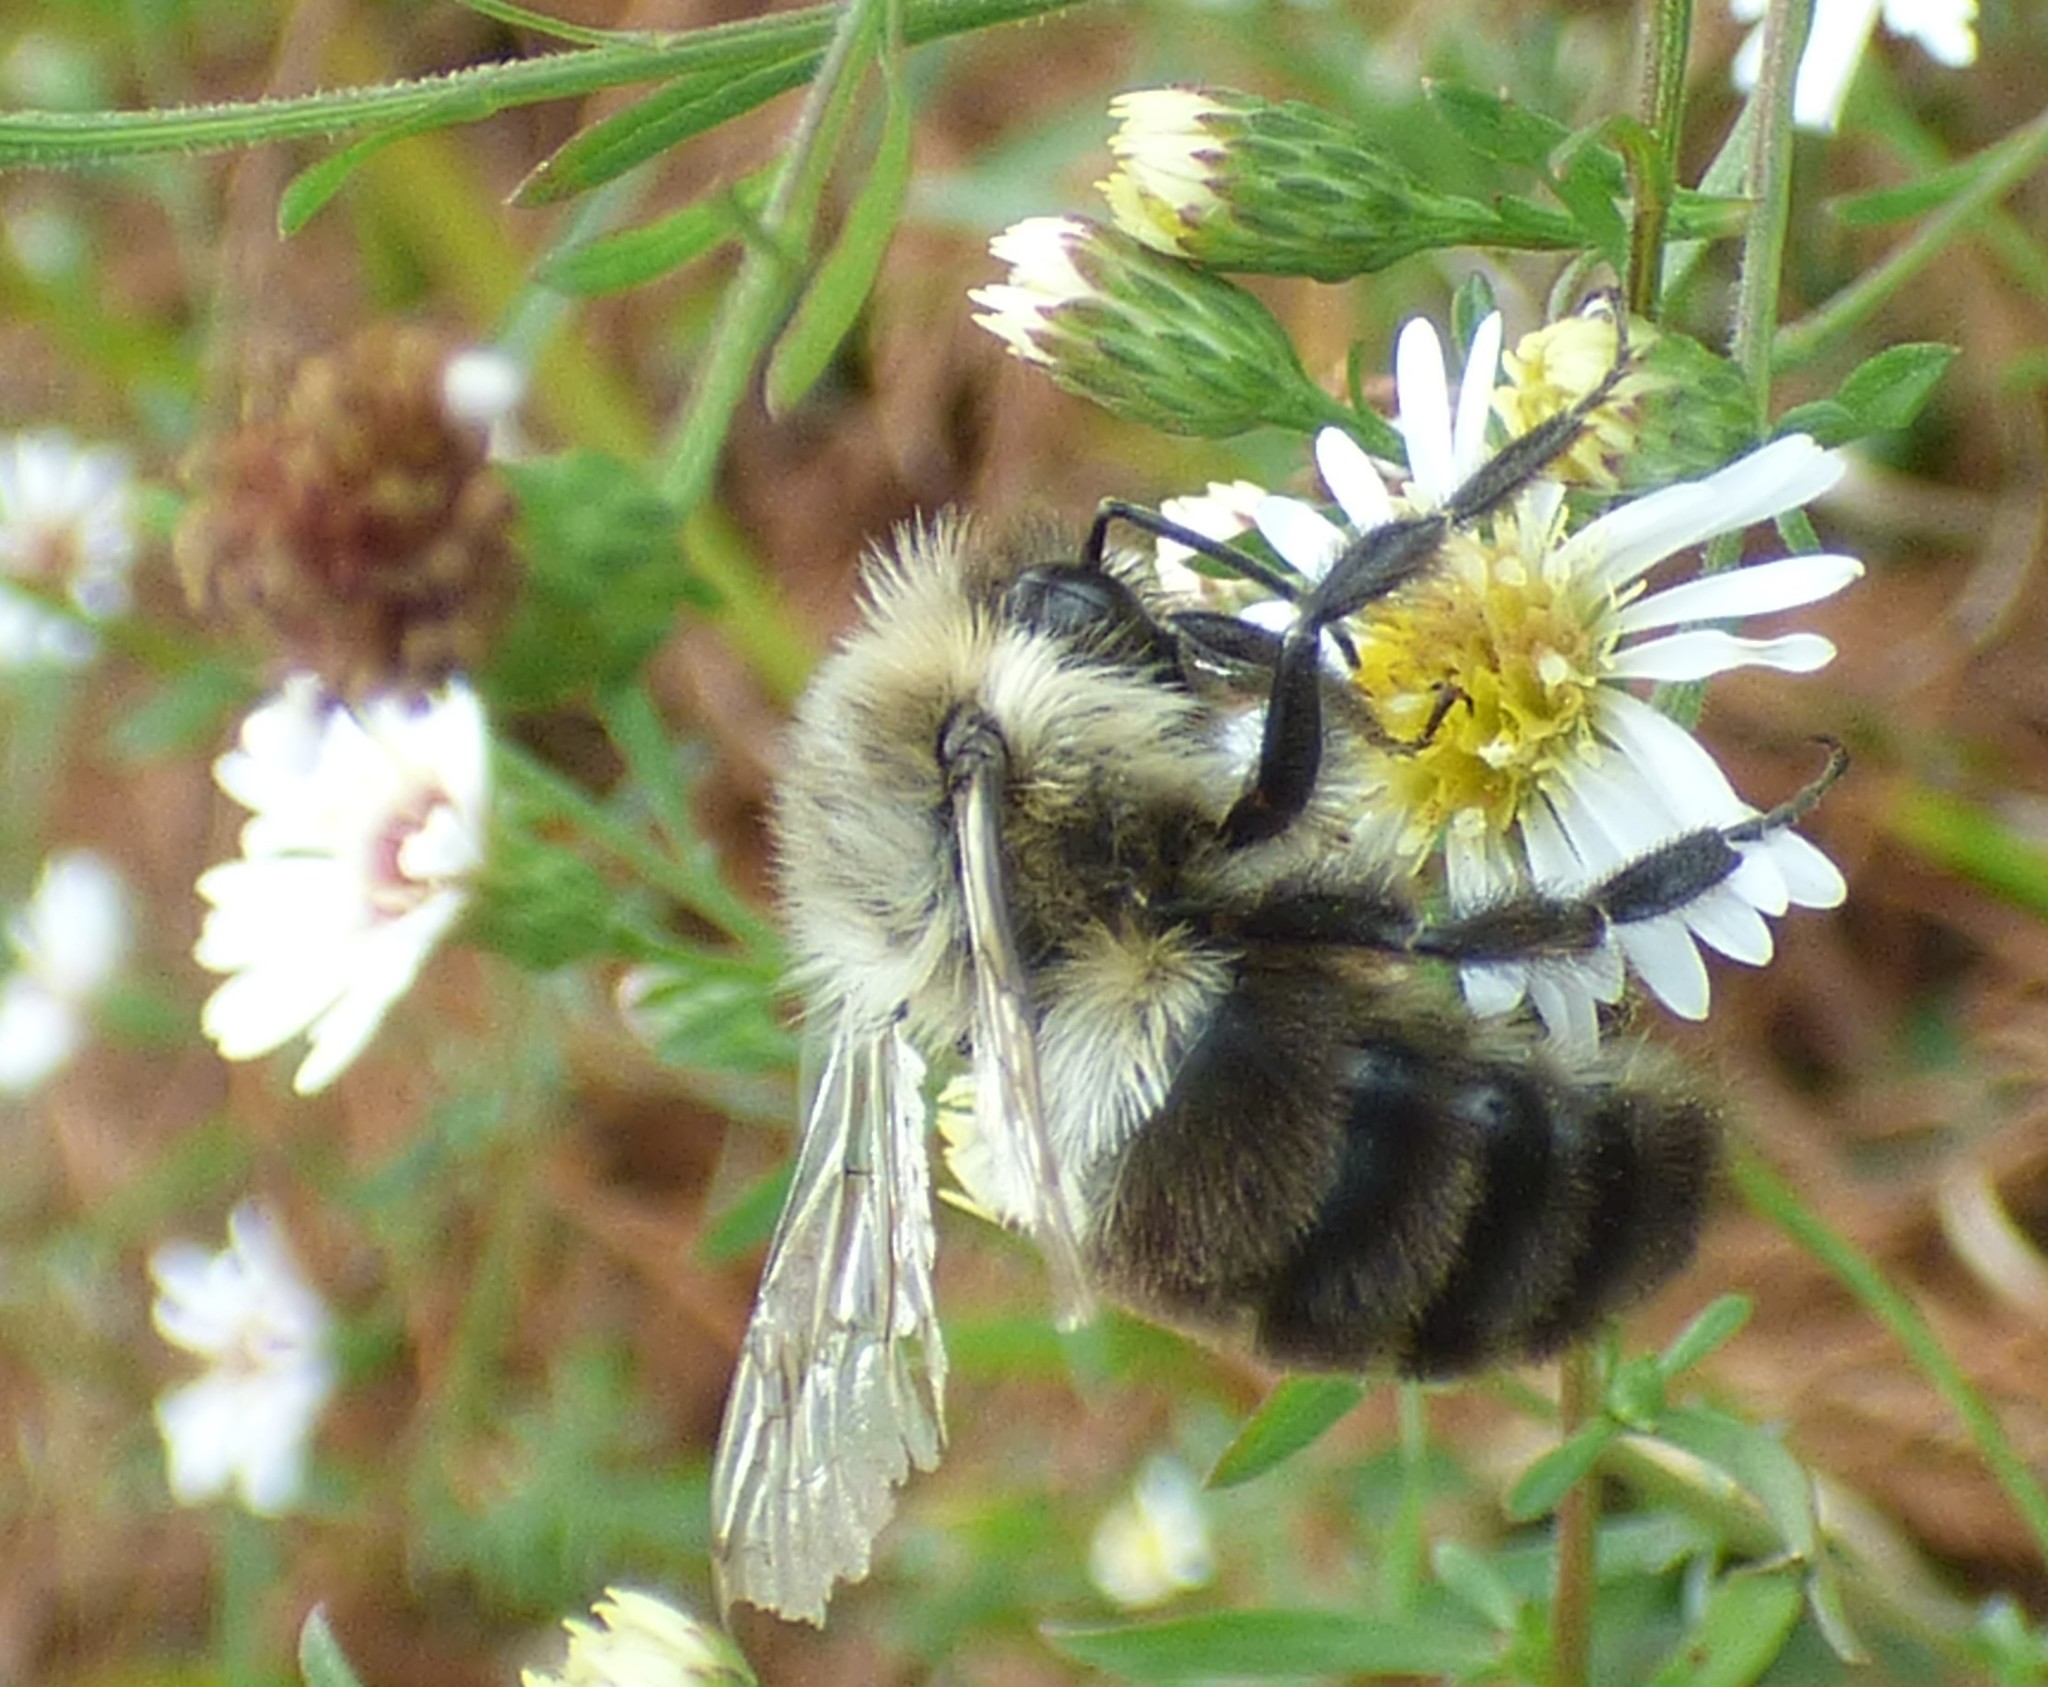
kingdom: Animalia
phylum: Arthropoda
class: Insecta
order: Hymenoptera
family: Apidae
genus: Bombus
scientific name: Bombus impatiens
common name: Common eastern bumble bee
